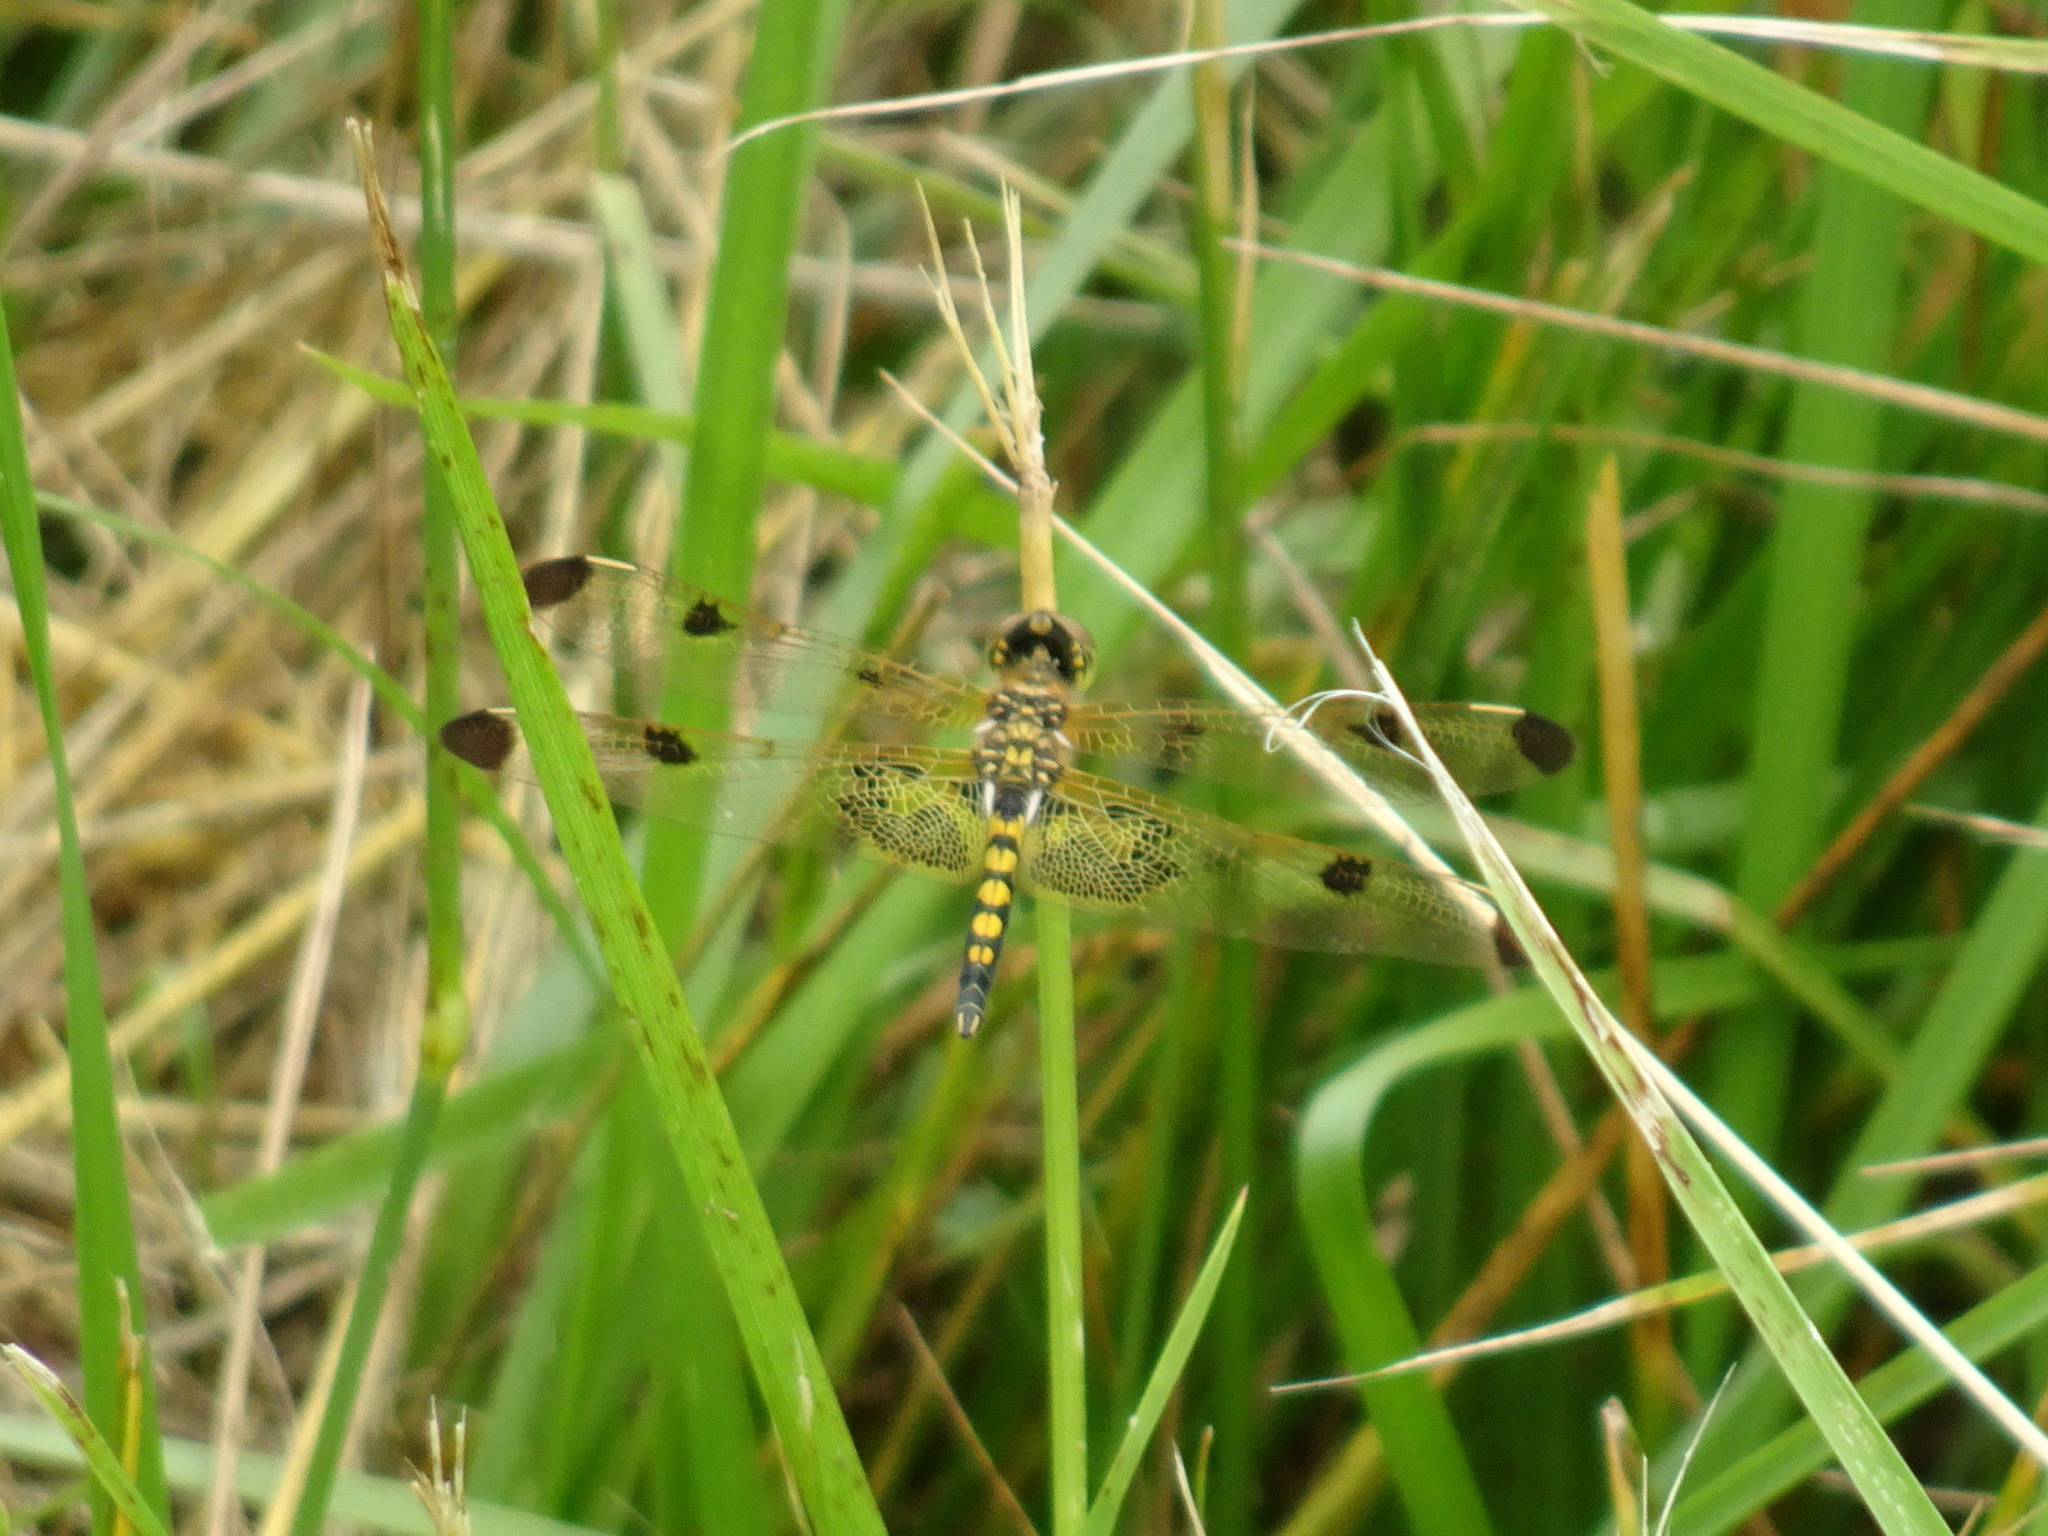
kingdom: Animalia
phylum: Arthropoda
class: Insecta
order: Odonata
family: Libellulidae
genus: Celithemis
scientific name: Celithemis elisa
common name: Calico pennant
